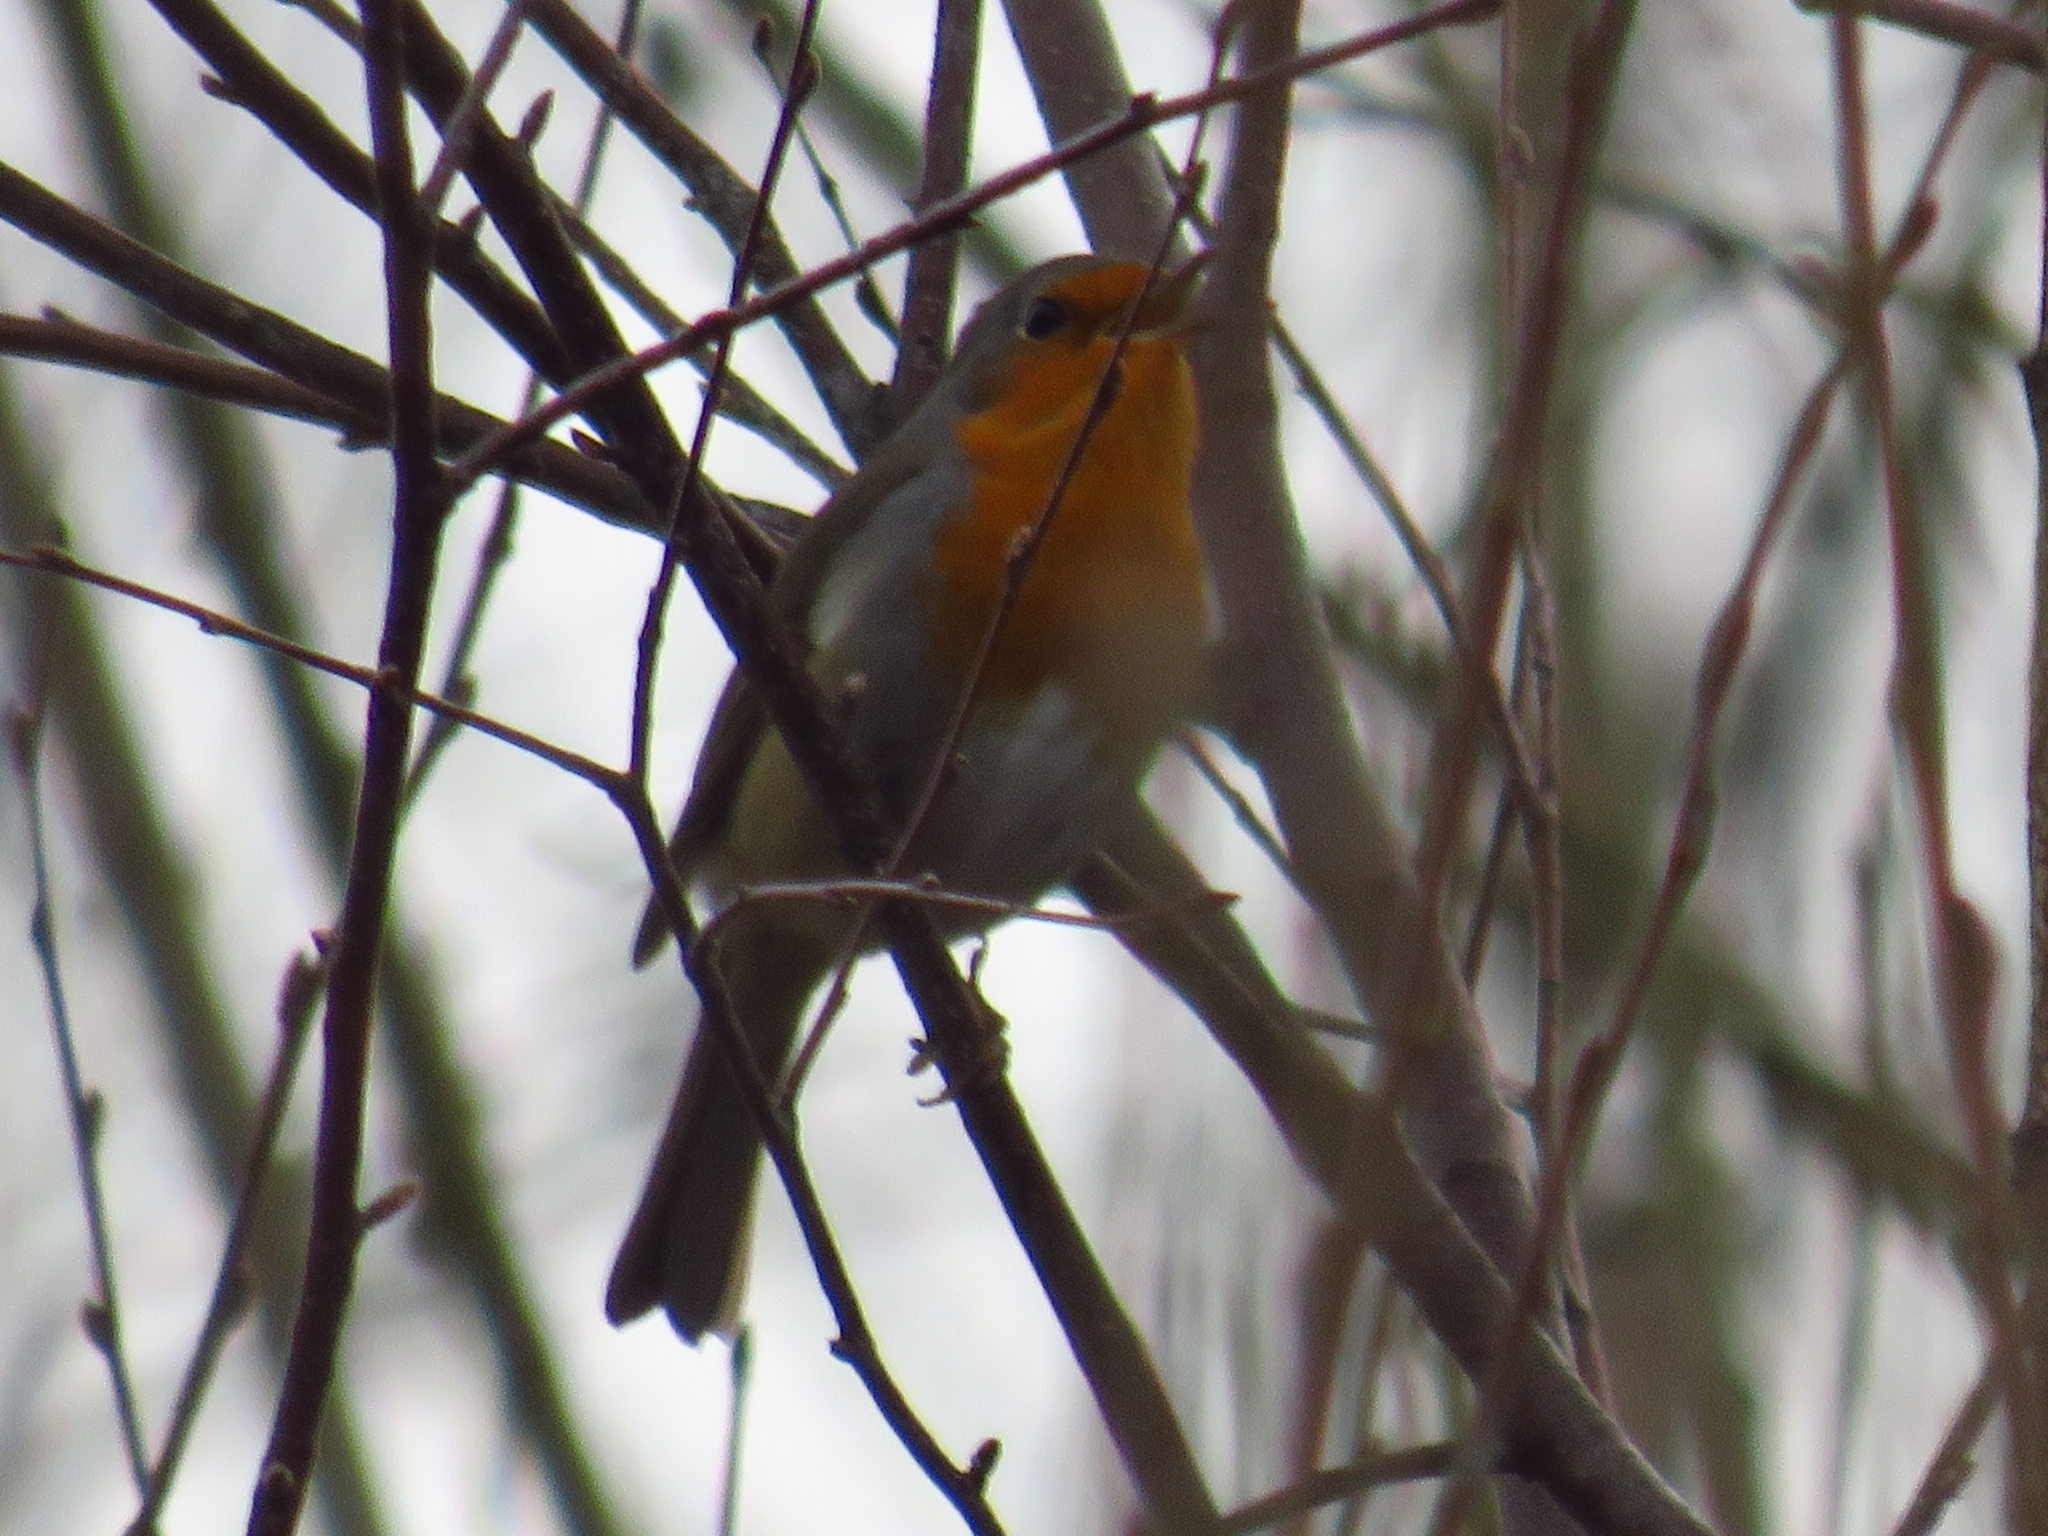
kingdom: Animalia
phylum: Chordata
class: Aves
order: Passeriformes
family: Muscicapidae
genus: Erithacus
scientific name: Erithacus rubecula
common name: European robin
